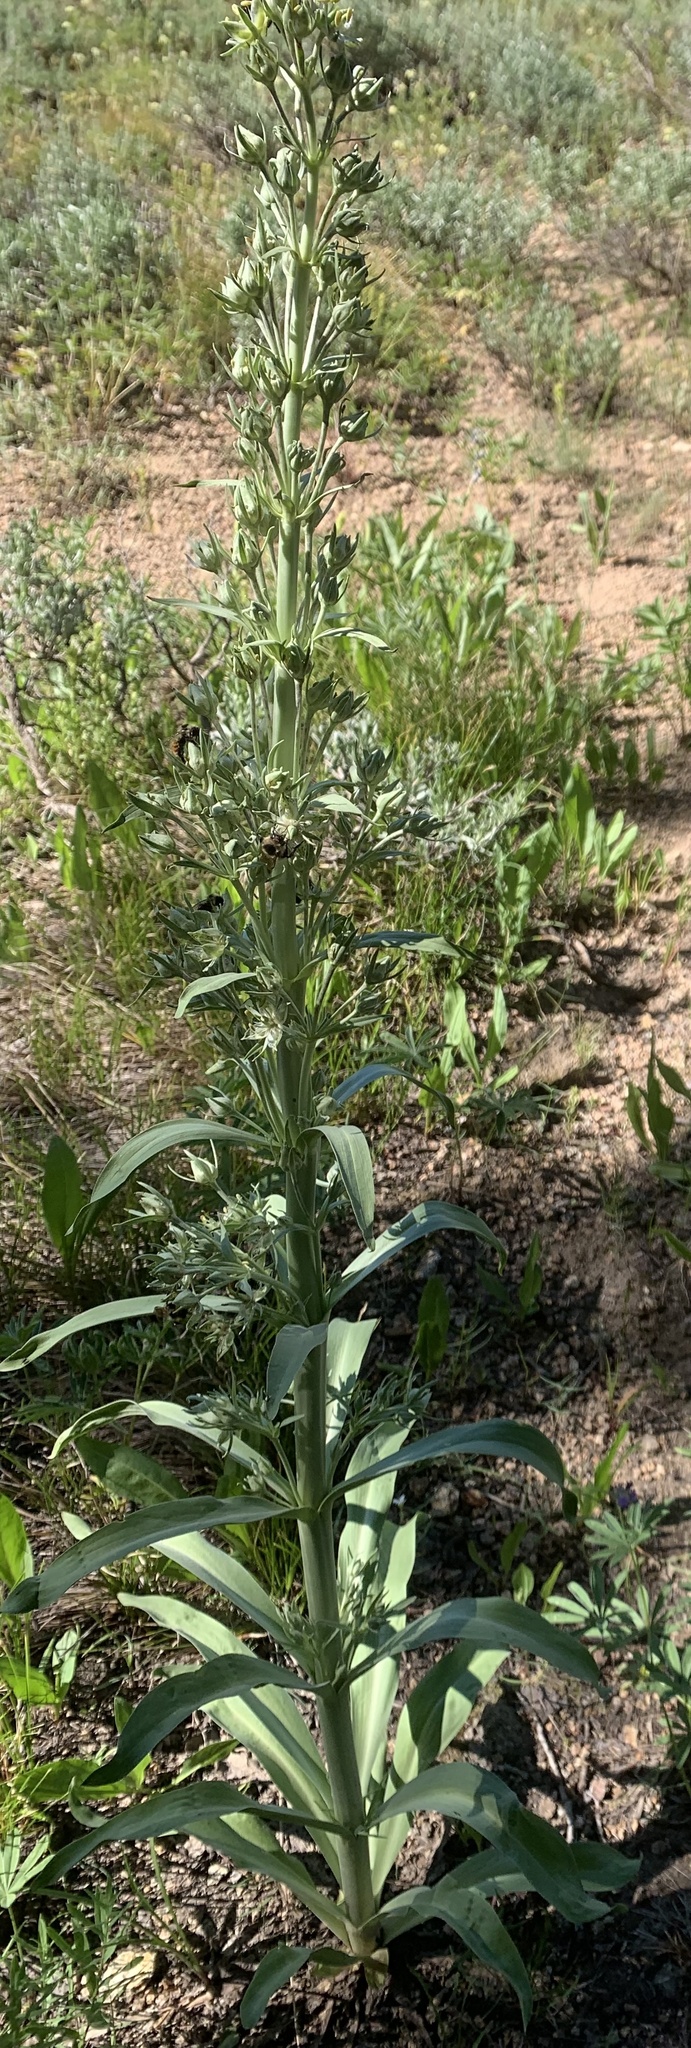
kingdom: Plantae
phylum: Tracheophyta
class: Magnoliopsida
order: Gentianales
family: Gentianaceae
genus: Frasera
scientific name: Frasera speciosa
